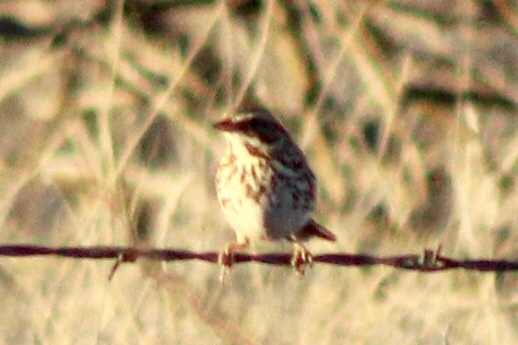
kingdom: Animalia
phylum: Chordata
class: Aves
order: Passeriformes
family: Passerellidae
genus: Passerculus
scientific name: Passerculus sandwichensis
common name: Savannah sparrow
